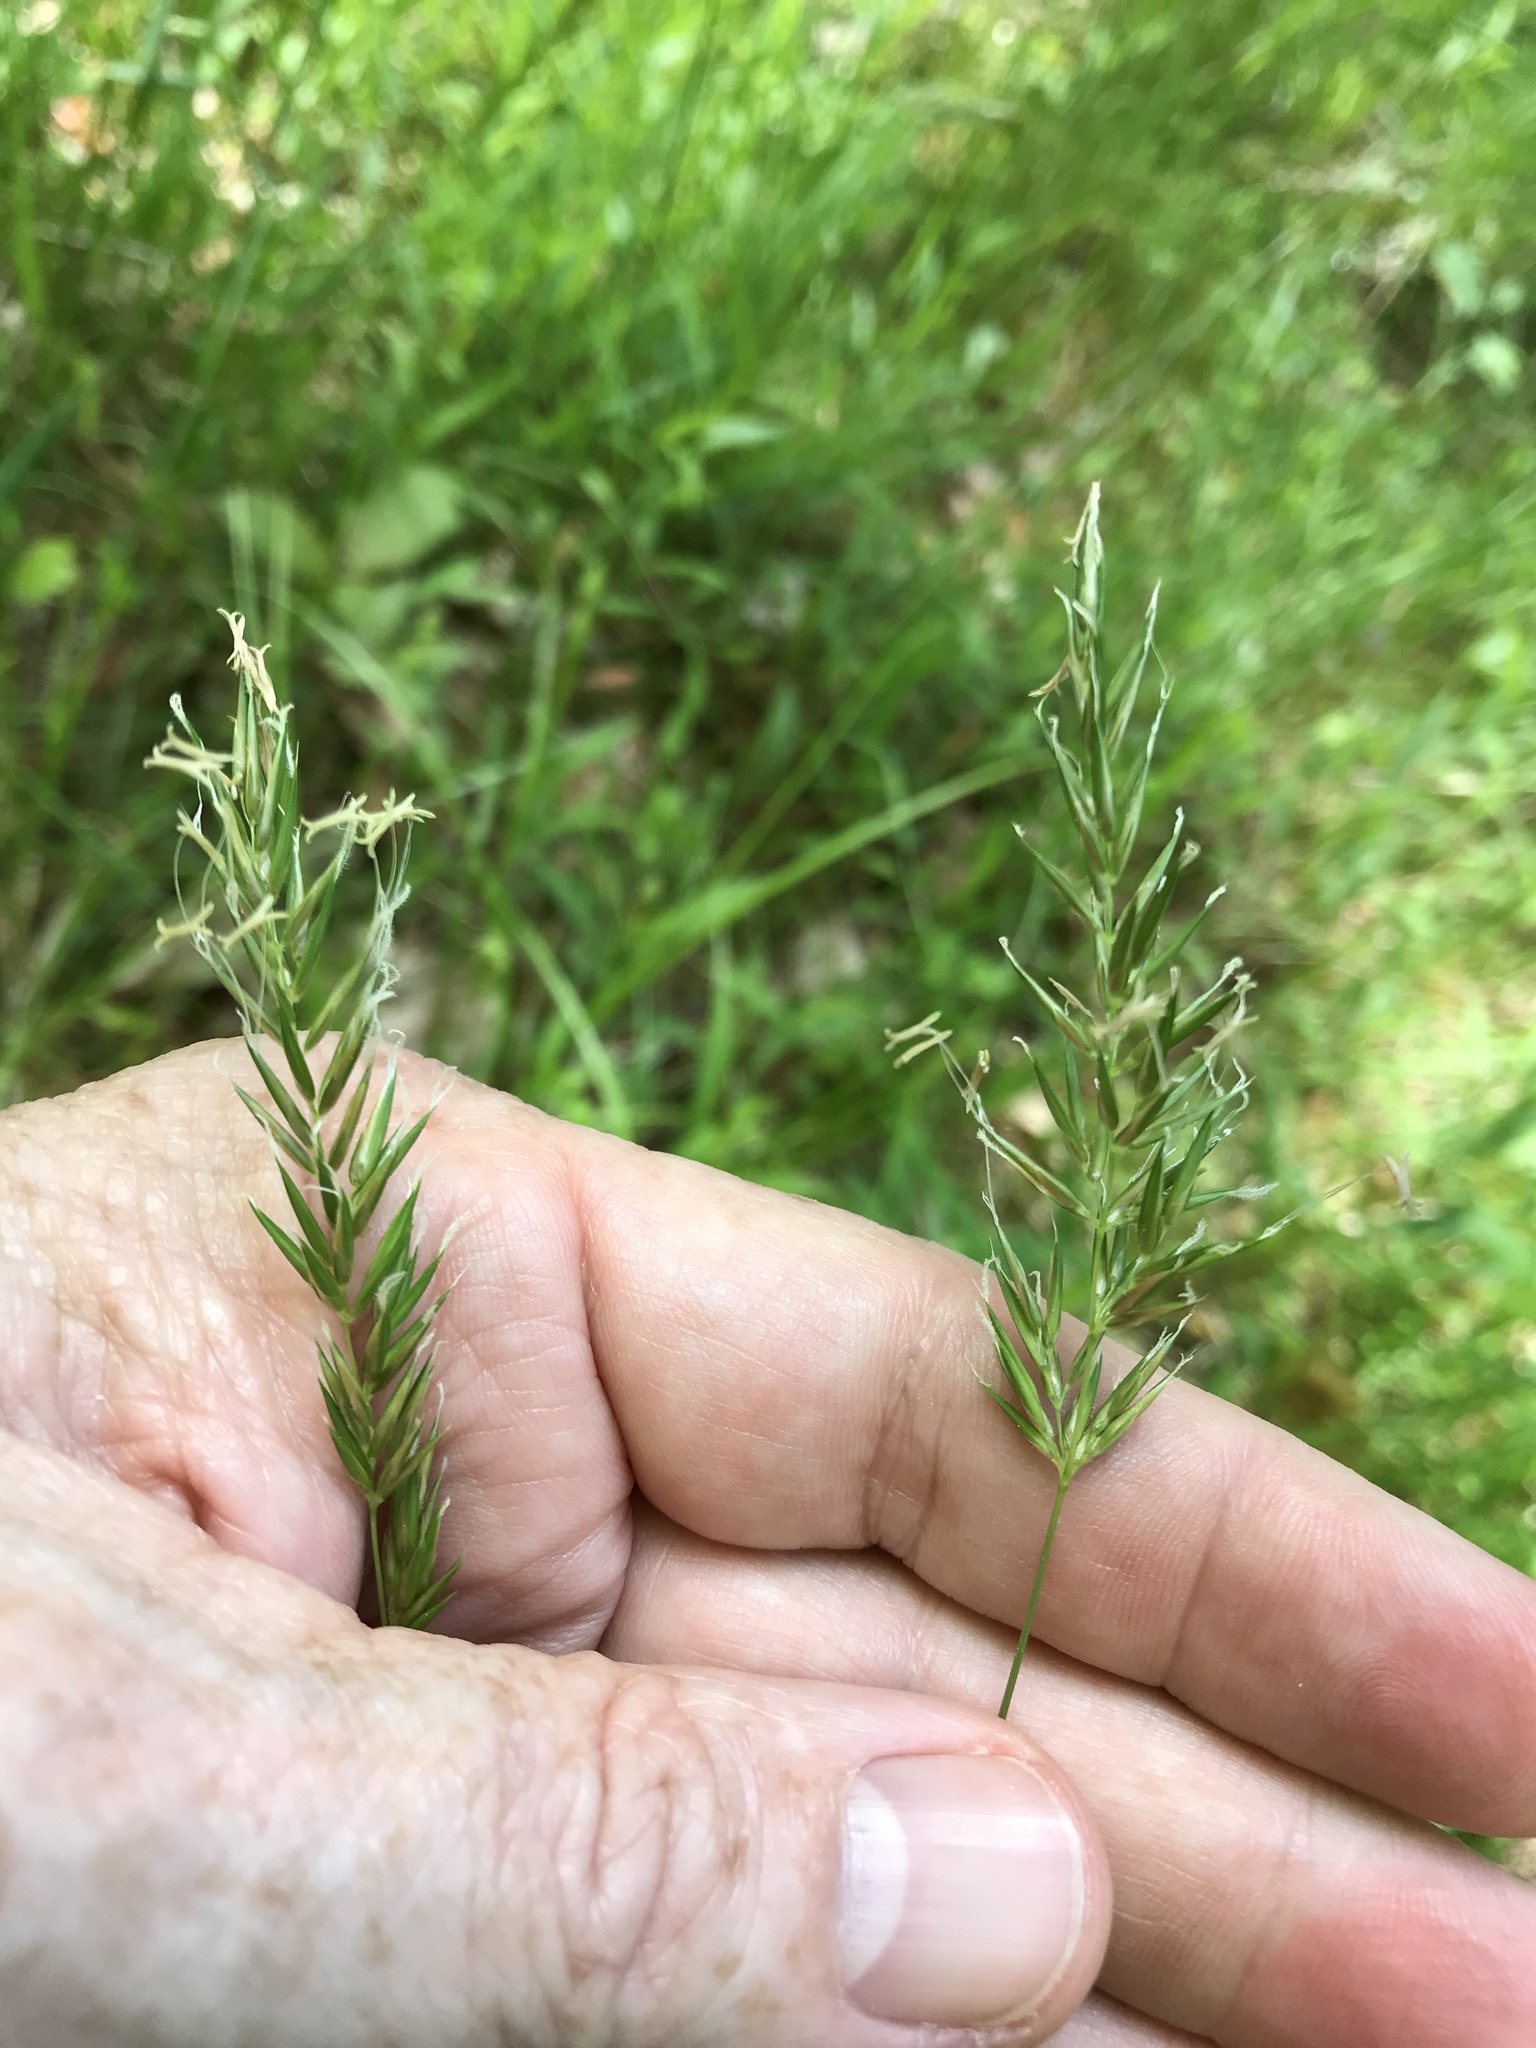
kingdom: Plantae
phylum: Tracheophyta
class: Liliopsida
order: Poales
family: Poaceae
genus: Anthoxanthum
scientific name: Anthoxanthum odoratum
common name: Sweet vernalgrass
